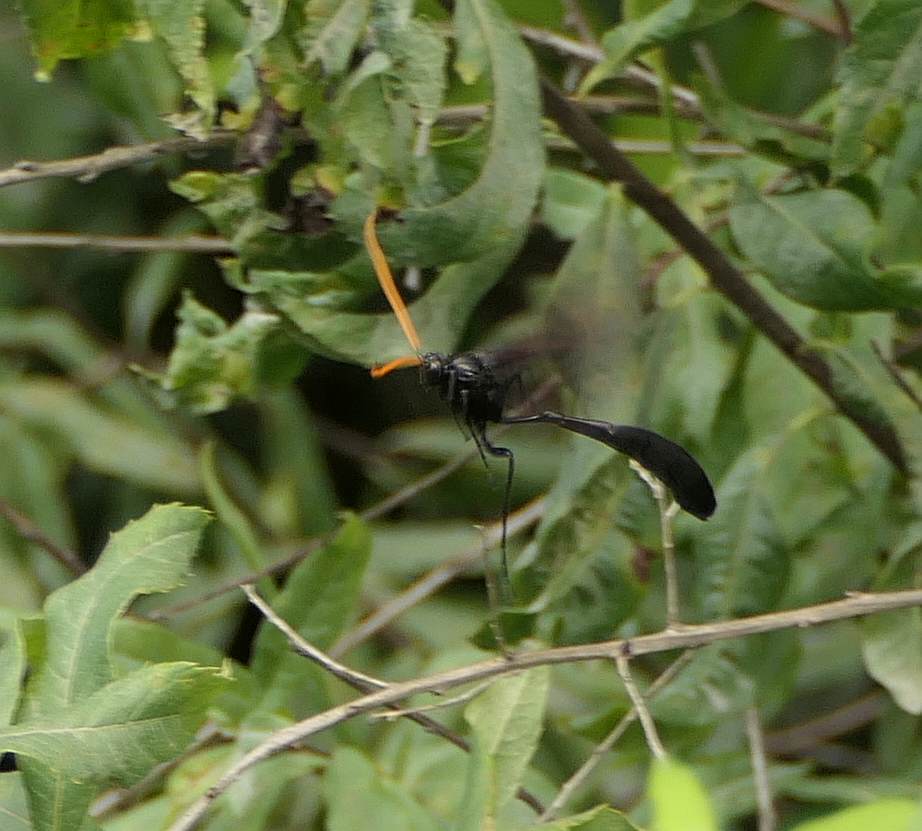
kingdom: Animalia
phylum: Arthropoda
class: Insecta
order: Hymenoptera
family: Ichneumonidae
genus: Thyreodon
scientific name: Thyreodon atricolor
